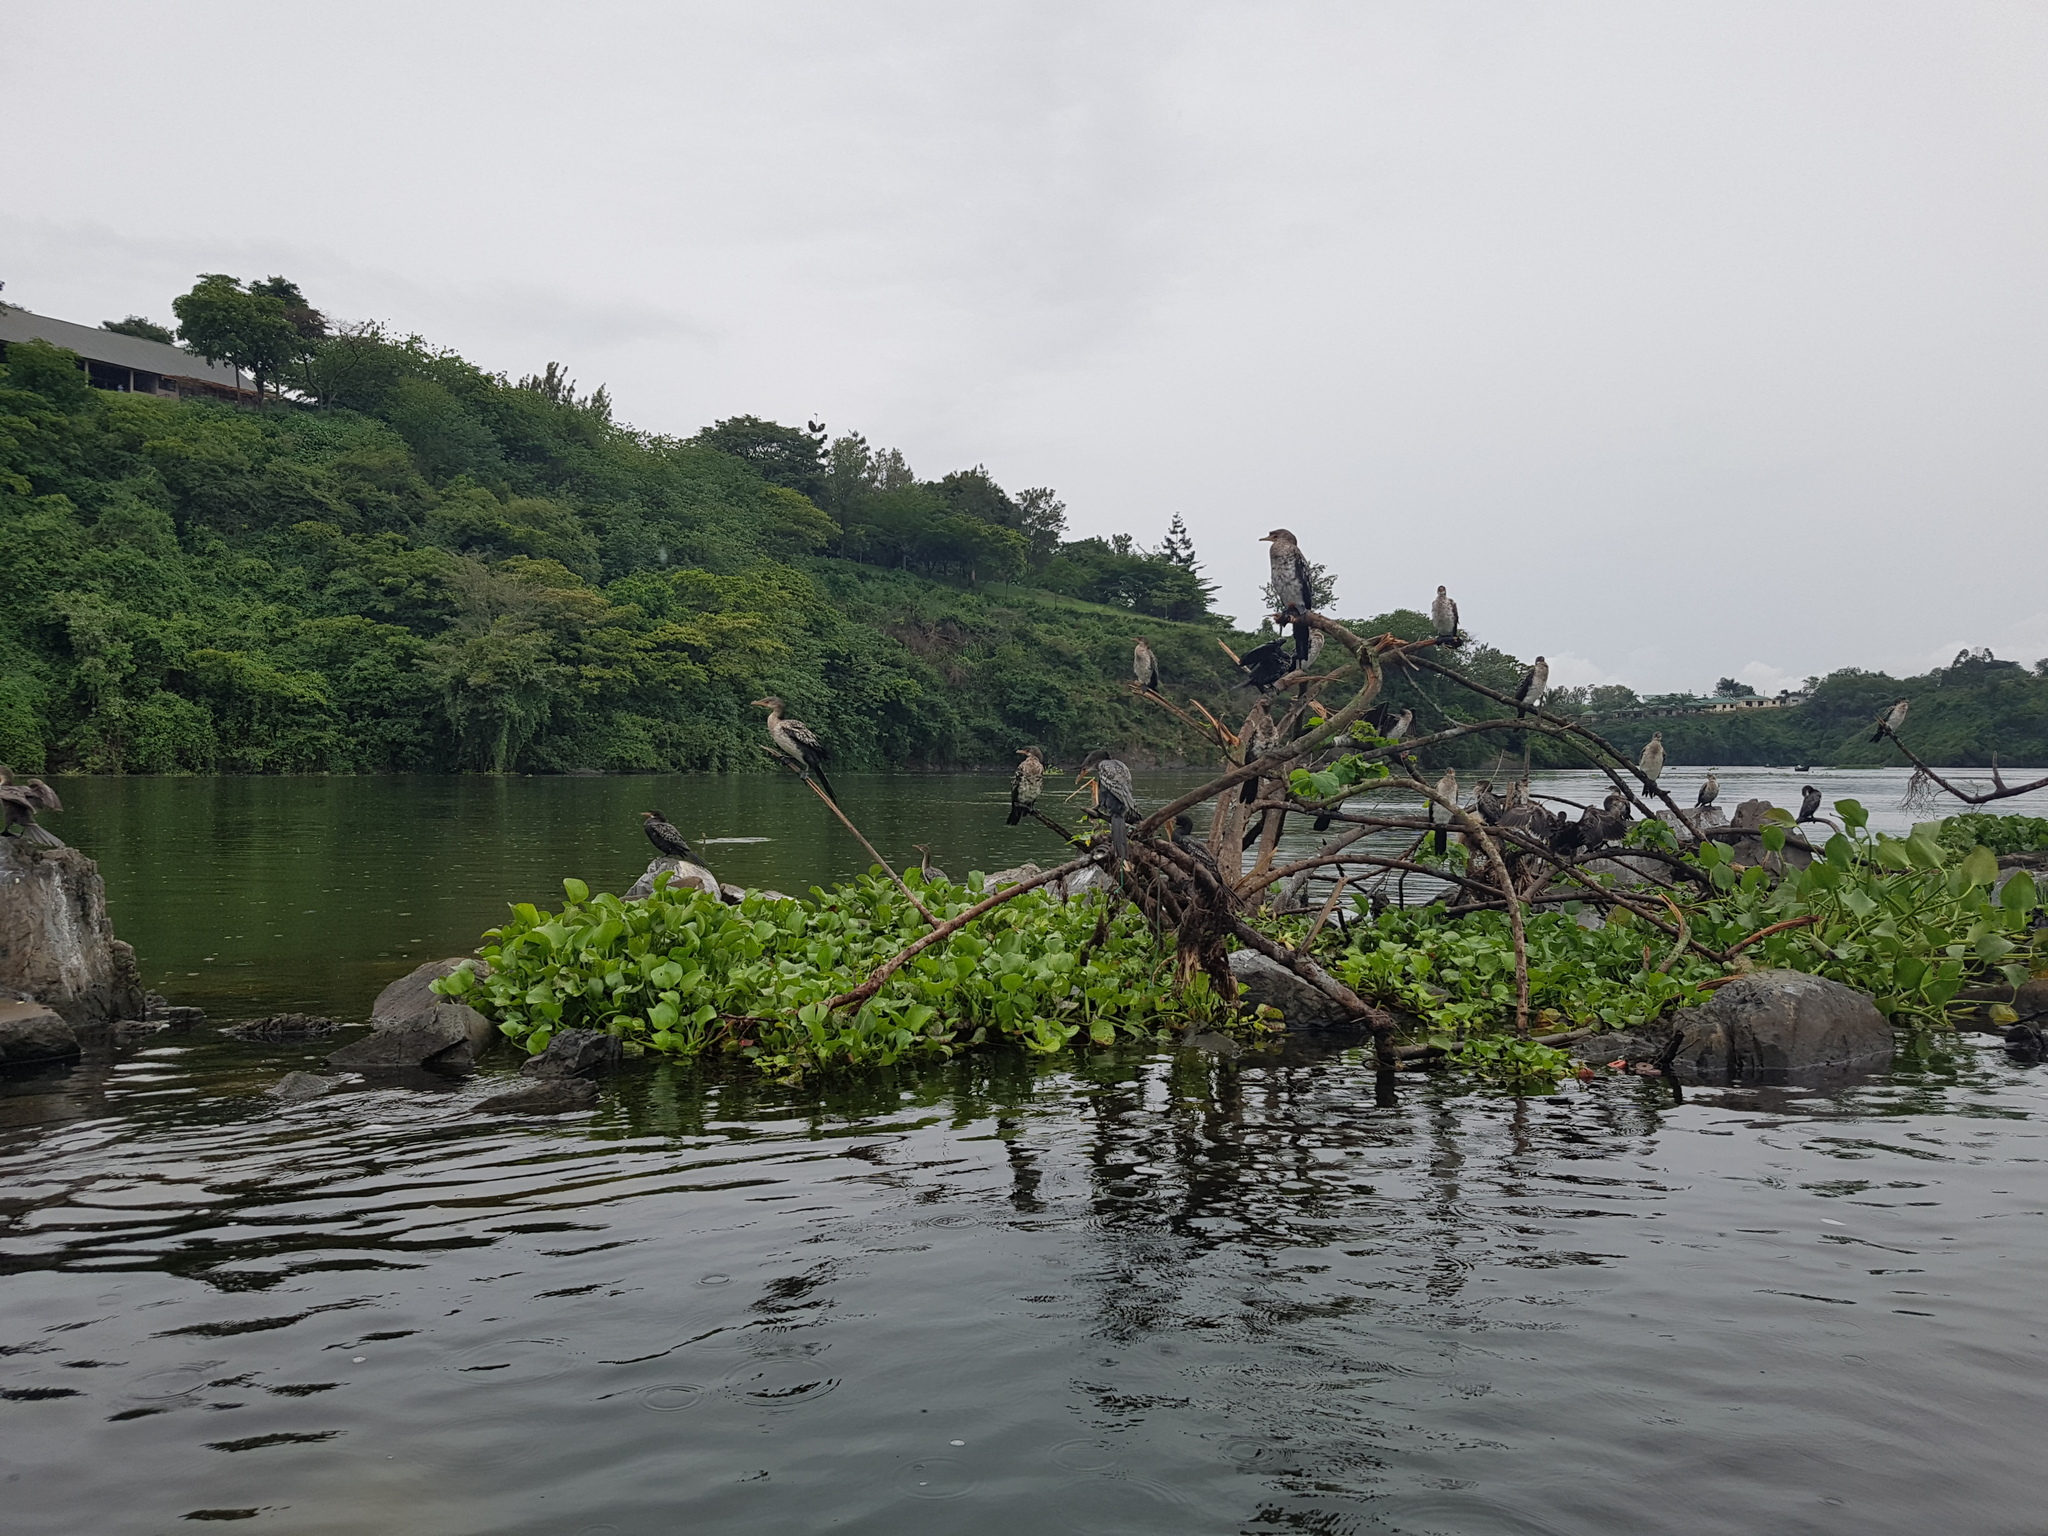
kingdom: Animalia
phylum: Chordata
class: Aves
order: Suliformes
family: Phalacrocoracidae
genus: Microcarbo
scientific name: Microcarbo africanus
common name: Long-tailed cormorant
